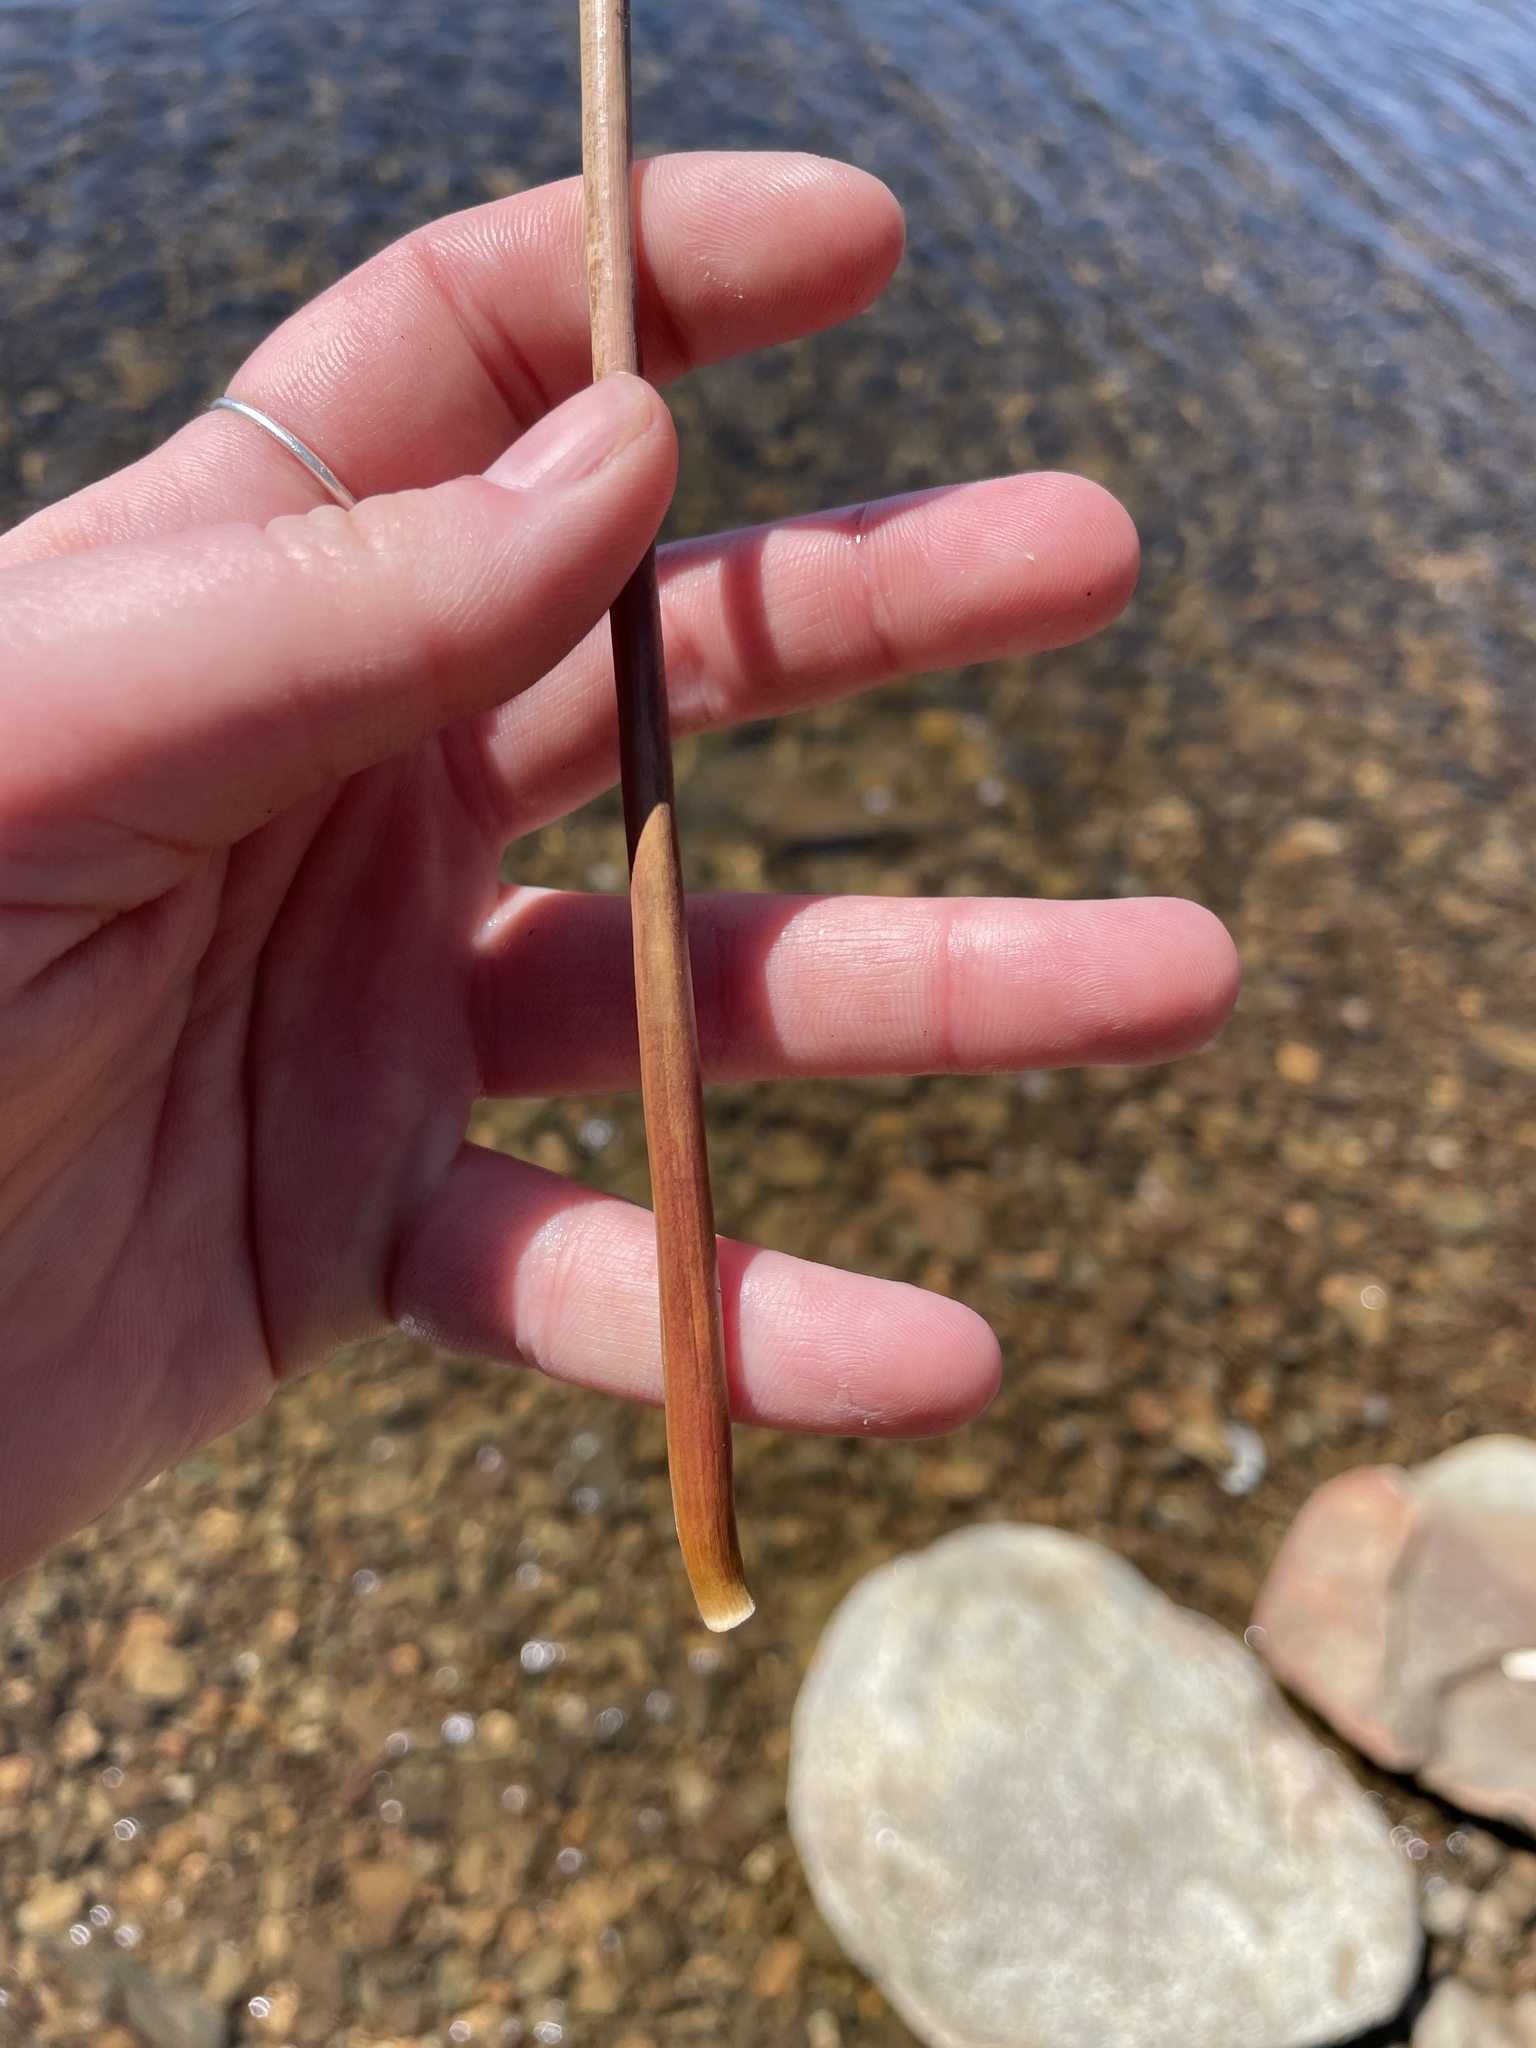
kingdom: Plantae
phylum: Tracheophyta
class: Liliopsida
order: Poales
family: Juncaceae
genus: Juncus
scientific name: Juncus militaris
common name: Bayonet rush
